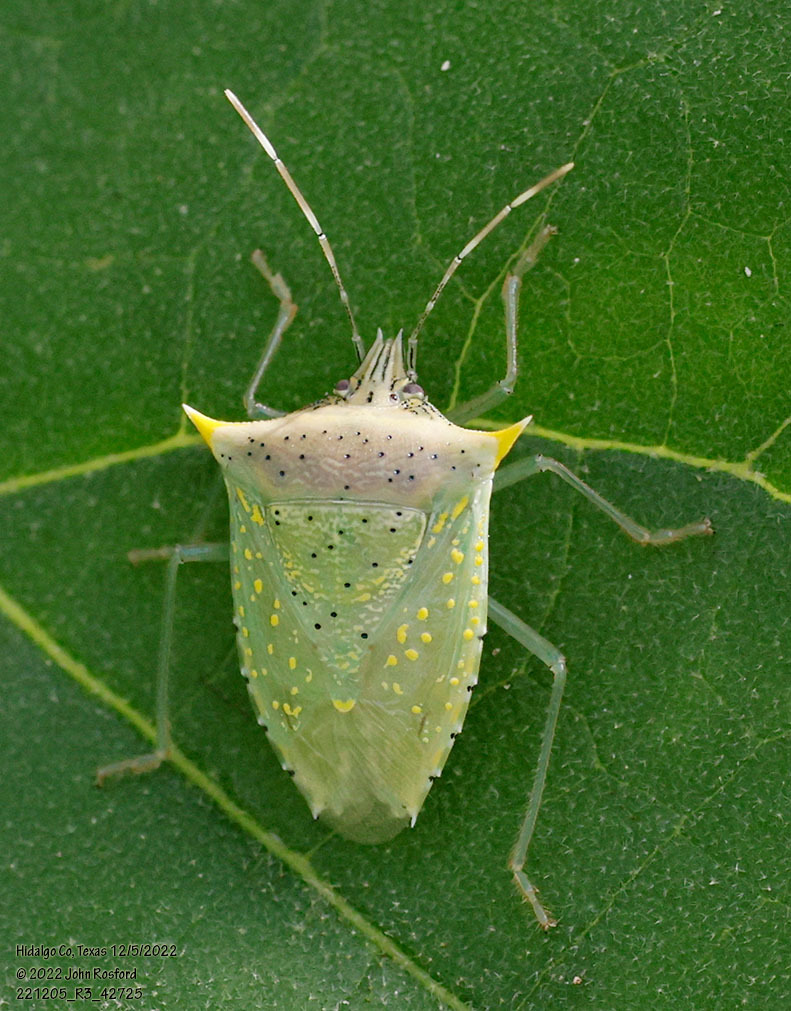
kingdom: Animalia
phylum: Arthropoda
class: Insecta
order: Hemiptera
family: Pentatomidae
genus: Arvelius
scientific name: Arvelius albopunctatus
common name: Tomato stink bug
